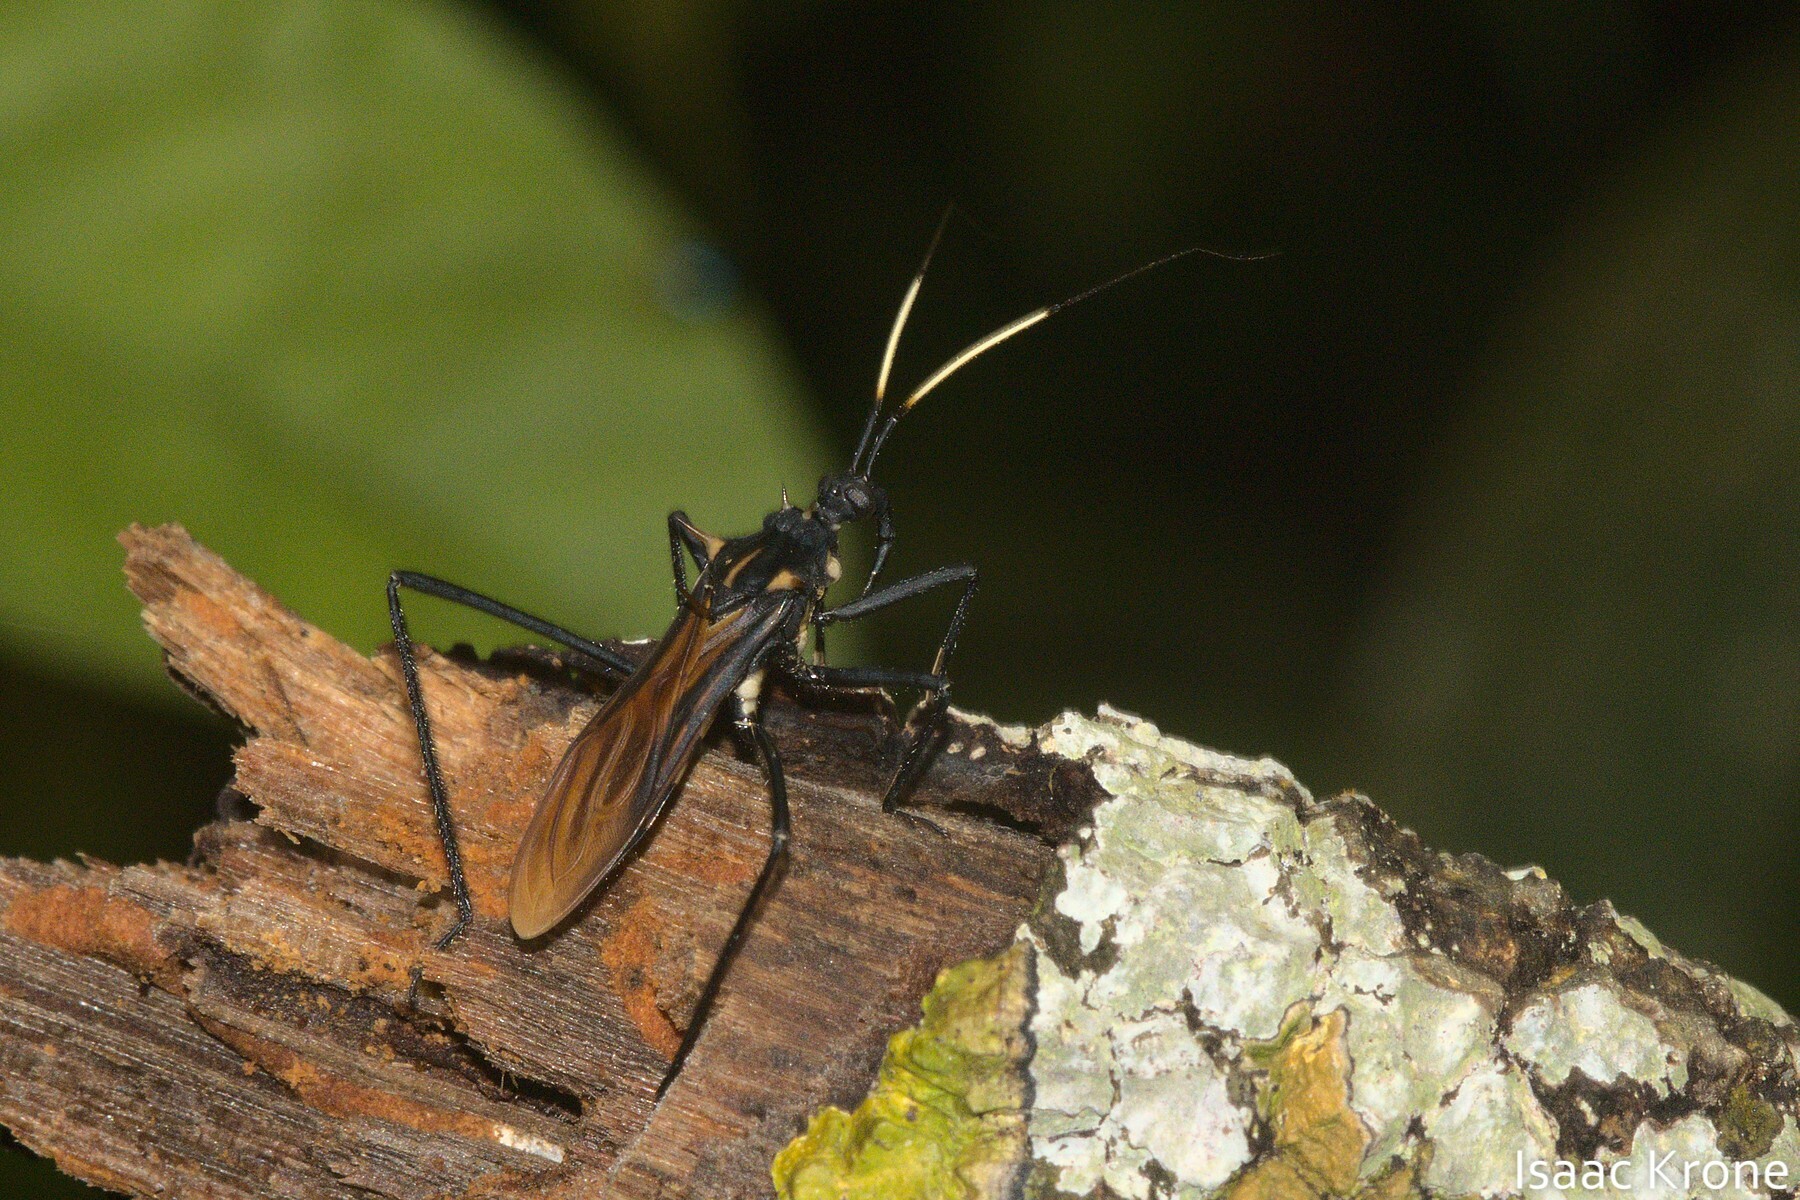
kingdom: Animalia
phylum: Arthropoda
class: Insecta
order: Hemiptera
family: Reduviidae
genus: Zelurus
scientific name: Zelurus festivus
